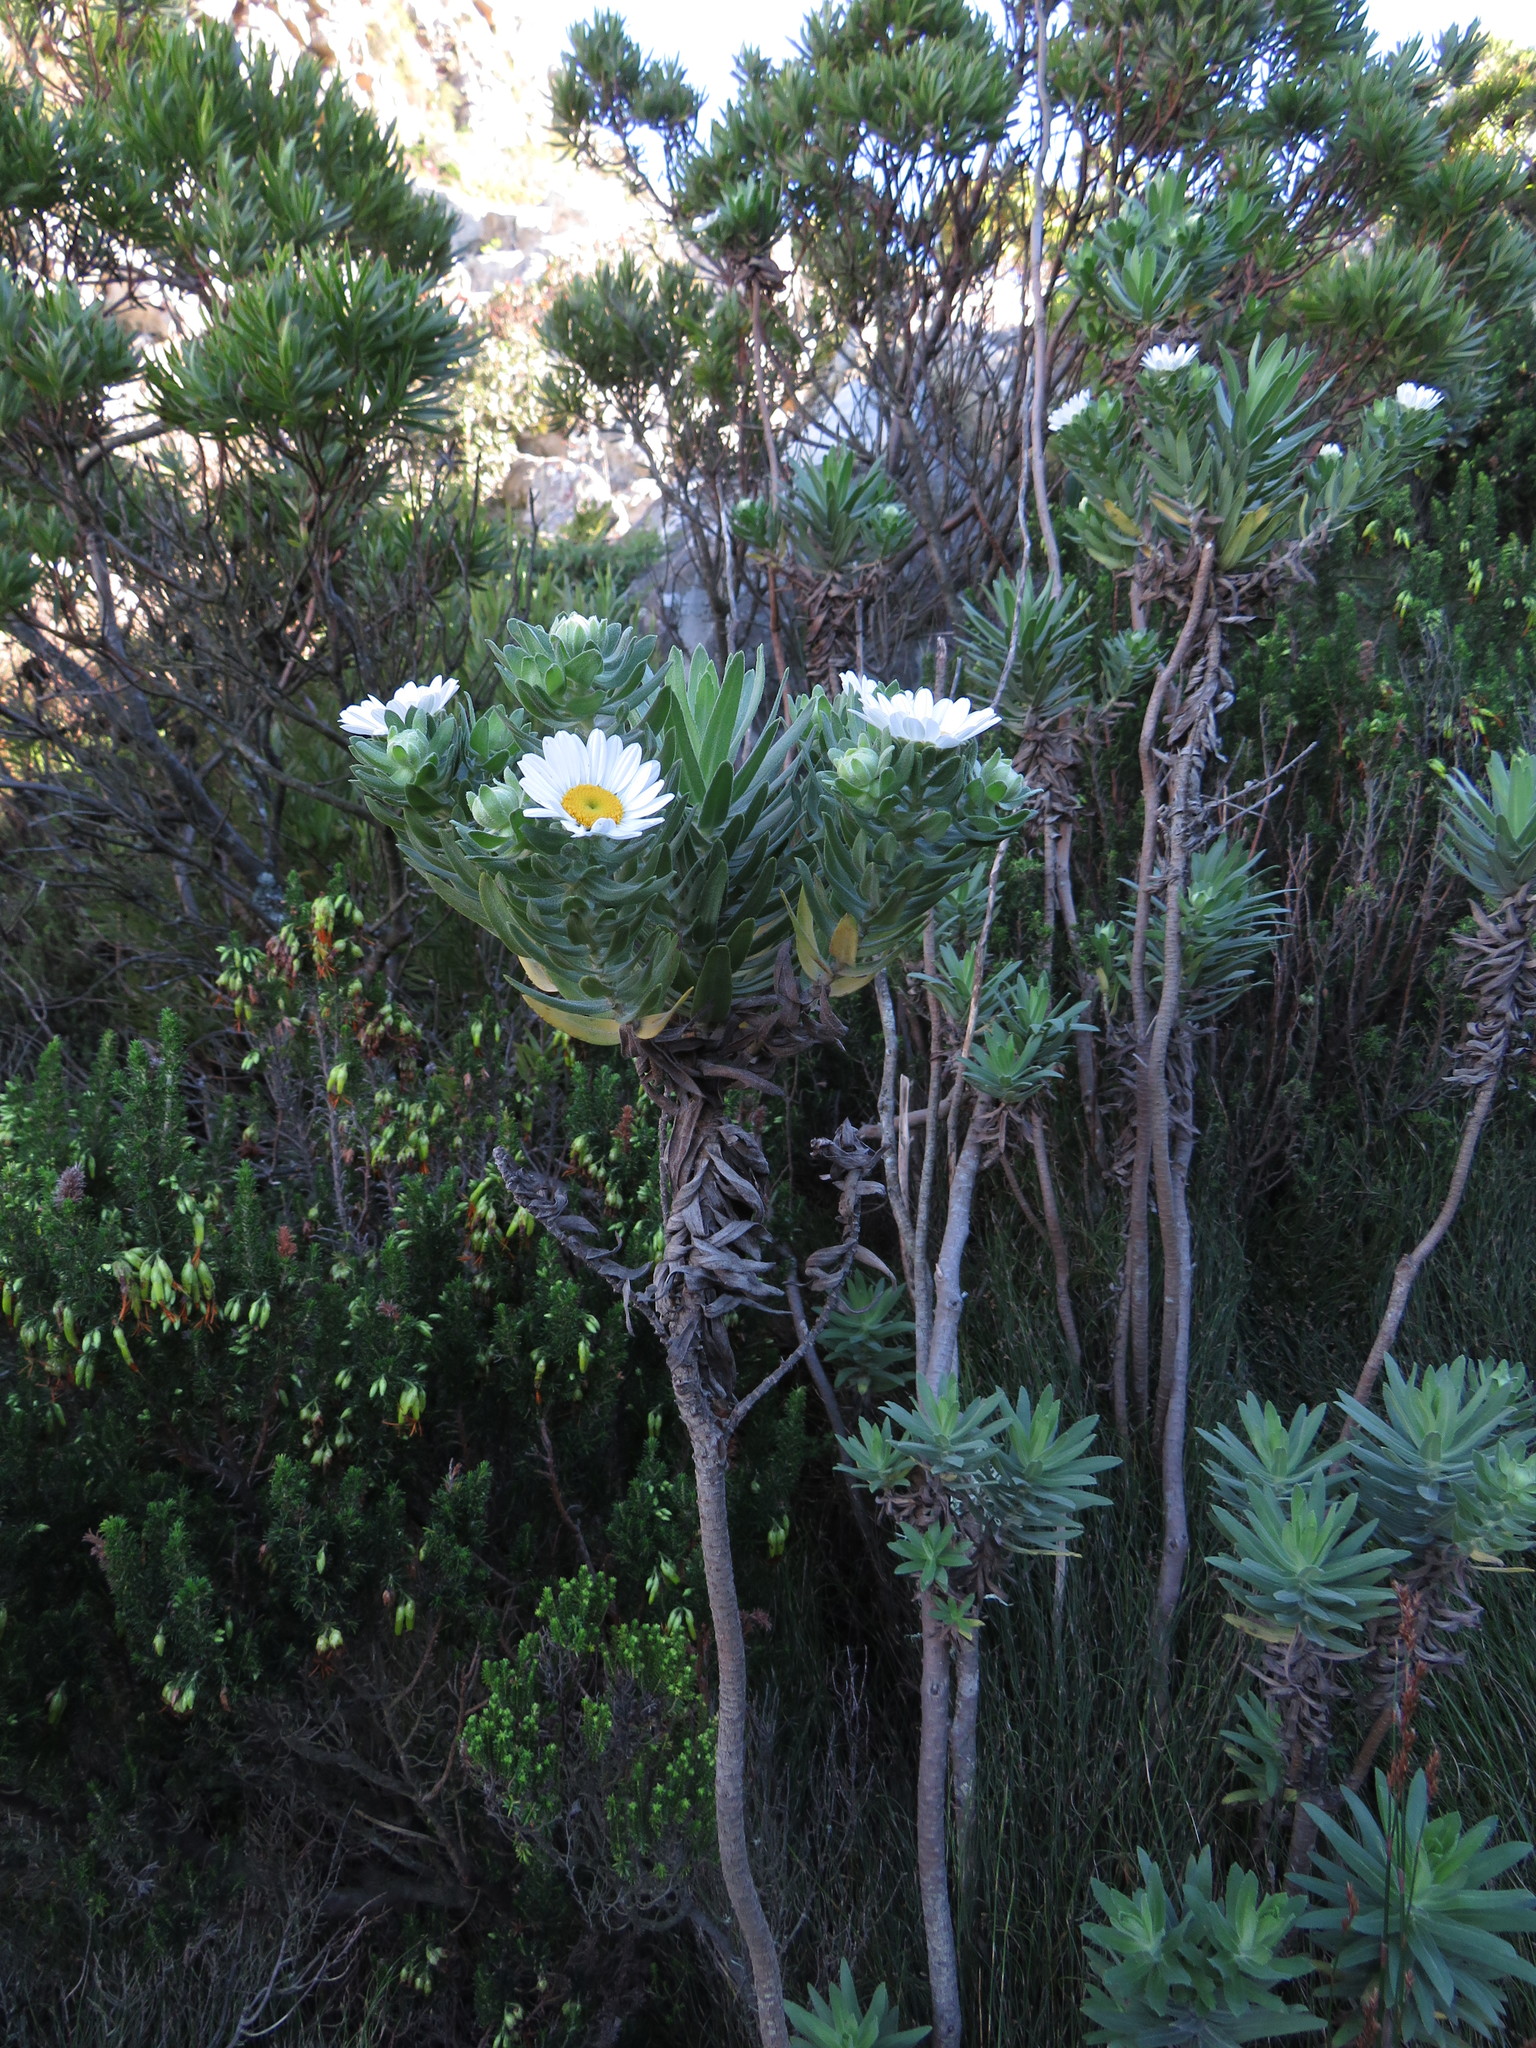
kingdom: Plantae
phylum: Tracheophyta
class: Magnoliopsida
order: Asterales
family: Asteraceae
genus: Osmitopsis
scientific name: Osmitopsis asteriscoides
